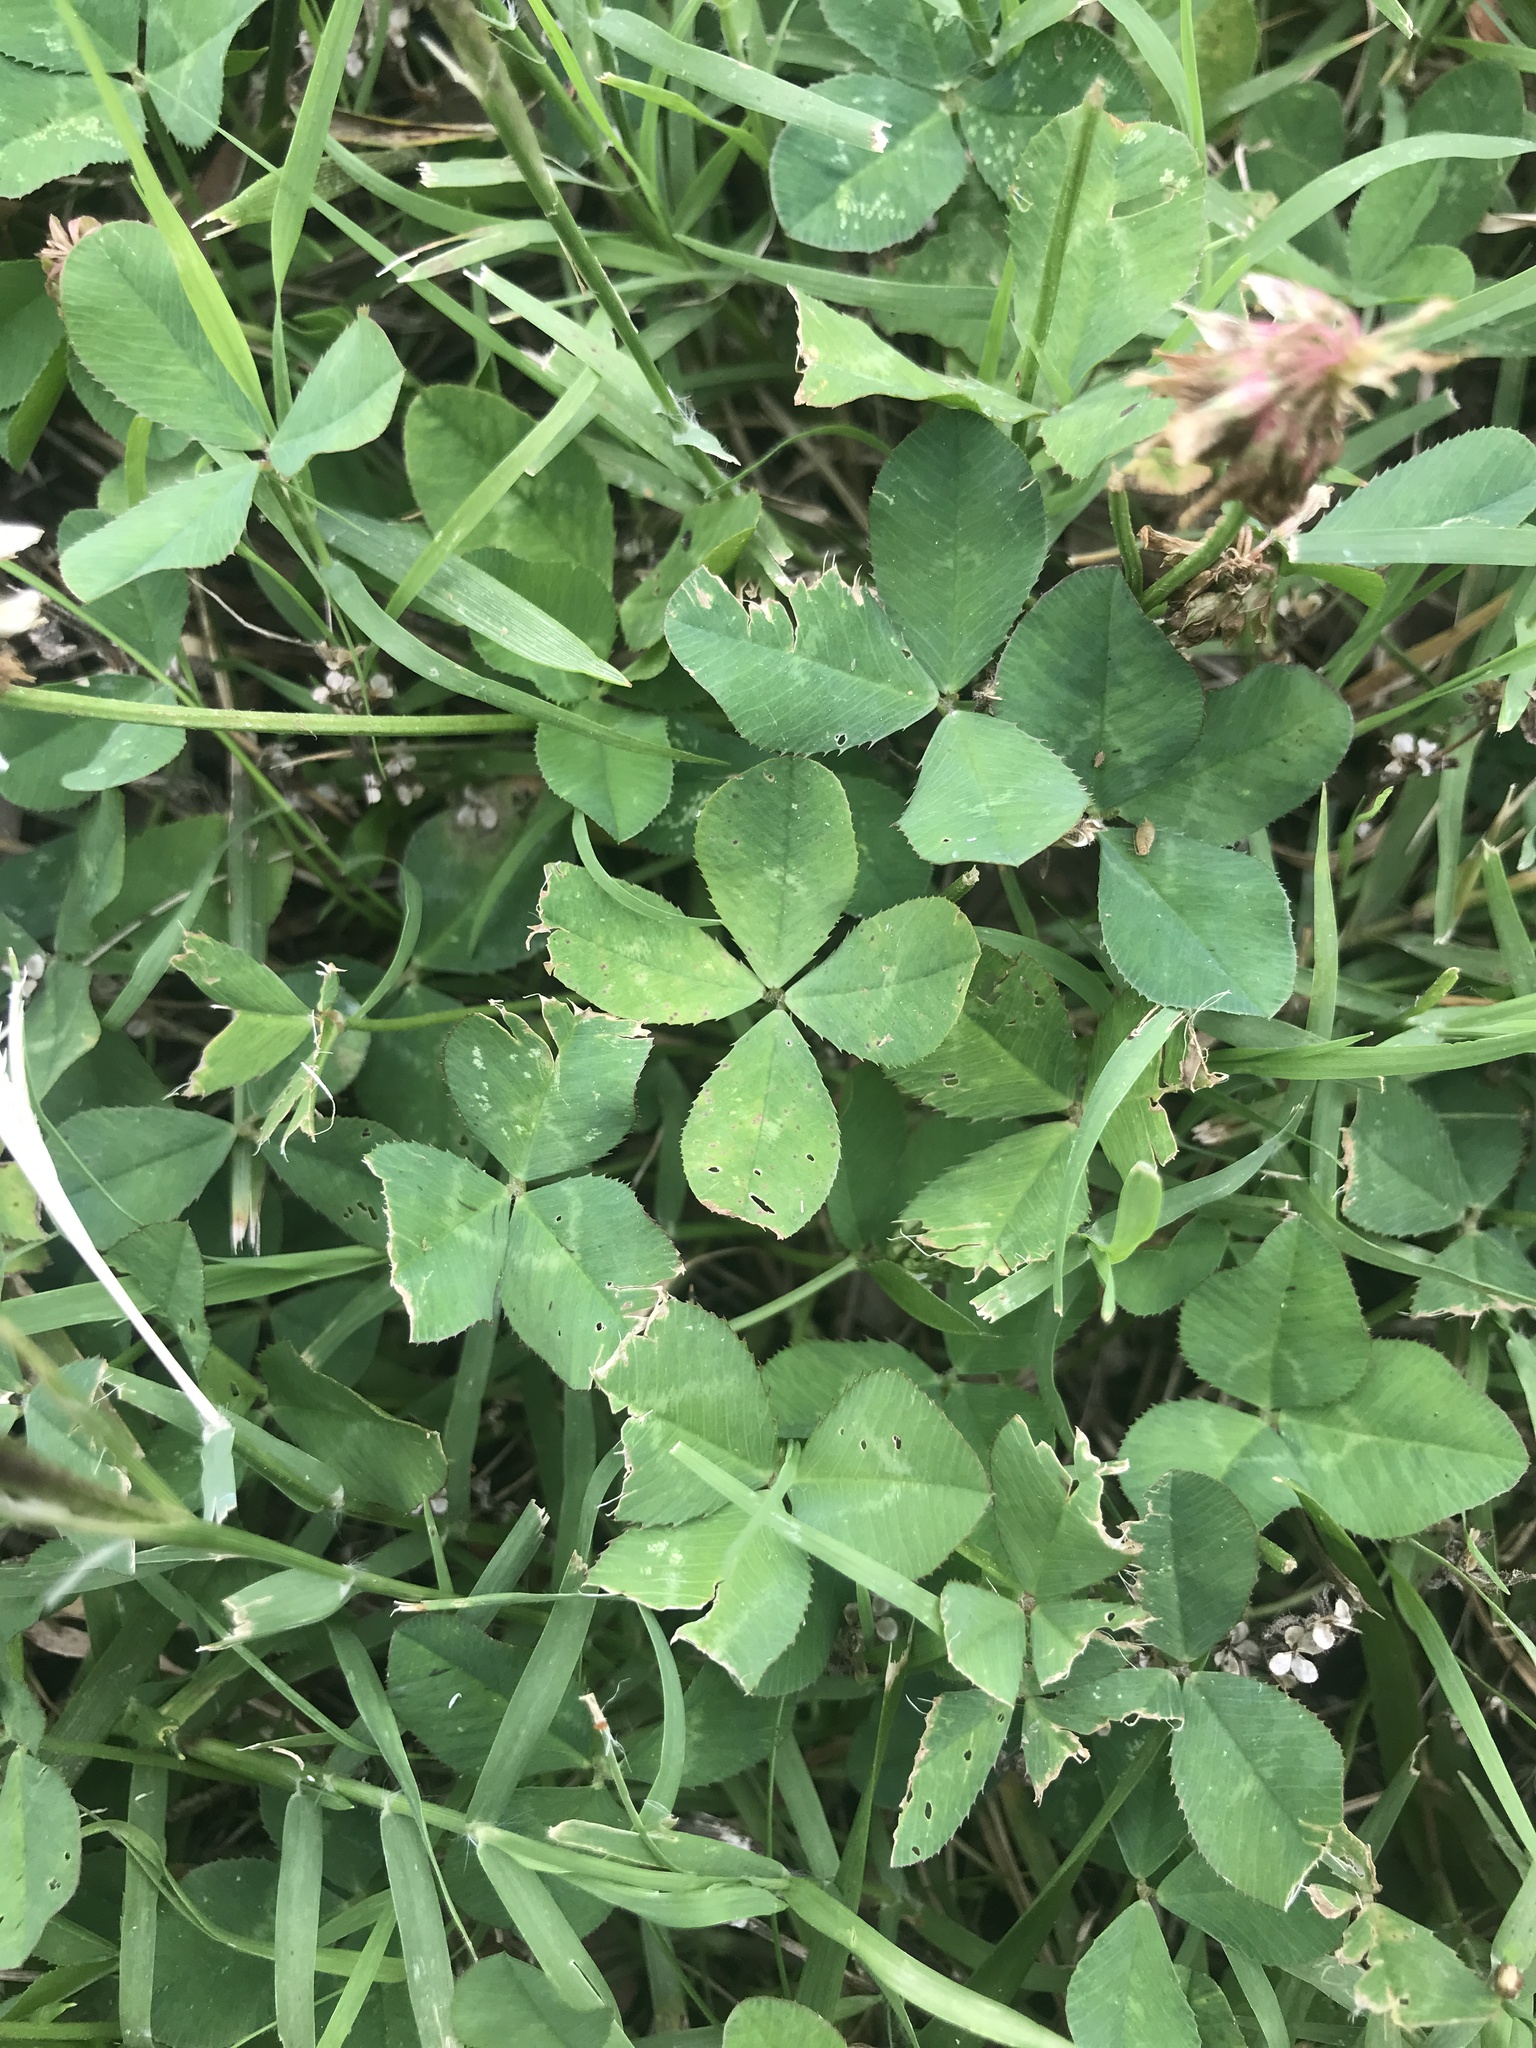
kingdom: Plantae
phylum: Tracheophyta
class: Magnoliopsida
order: Fabales
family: Fabaceae
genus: Trifolium
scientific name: Trifolium repens
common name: White clover
